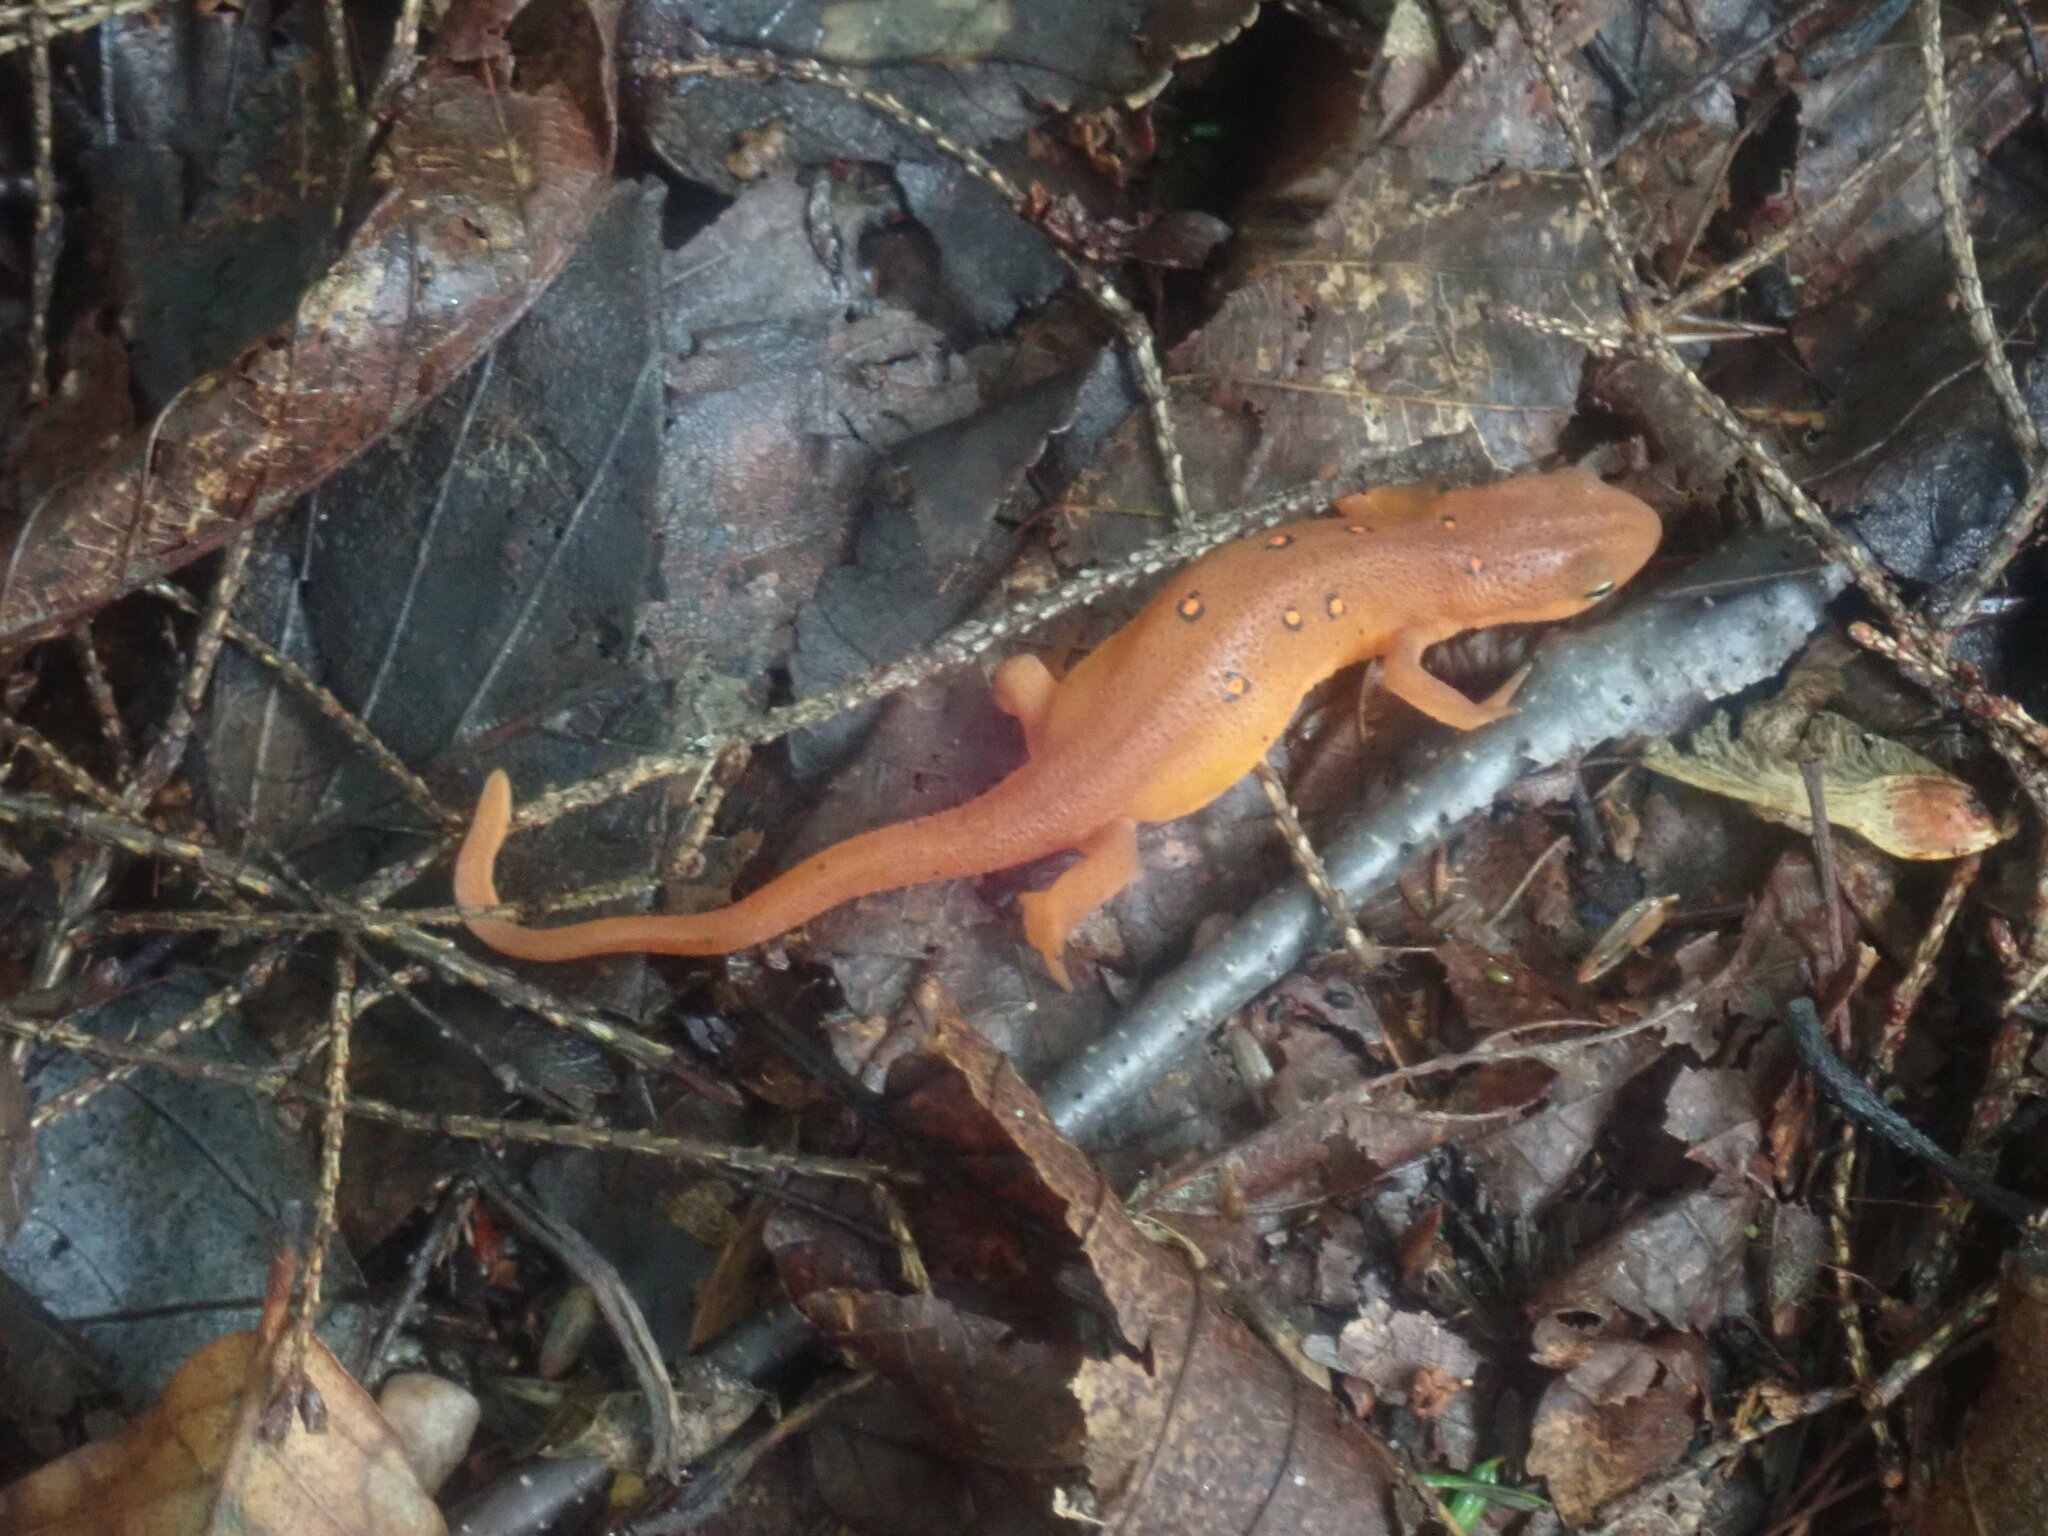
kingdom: Animalia
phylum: Chordata
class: Amphibia
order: Caudata
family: Salamandridae
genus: Notophthalmus
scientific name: Notophthalmus viridescens
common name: Eastern newt
